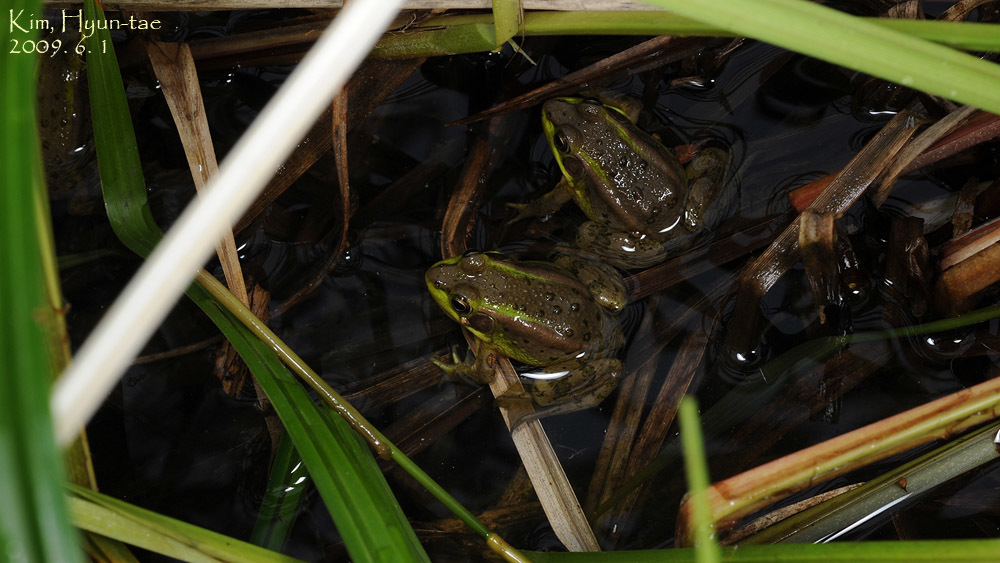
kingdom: Animalia
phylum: Chordata
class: Amphibia
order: Anura
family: Ranidae
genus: Pelophylax
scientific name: Pelophylax chosenicus
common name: Gold-spotted pond frog
